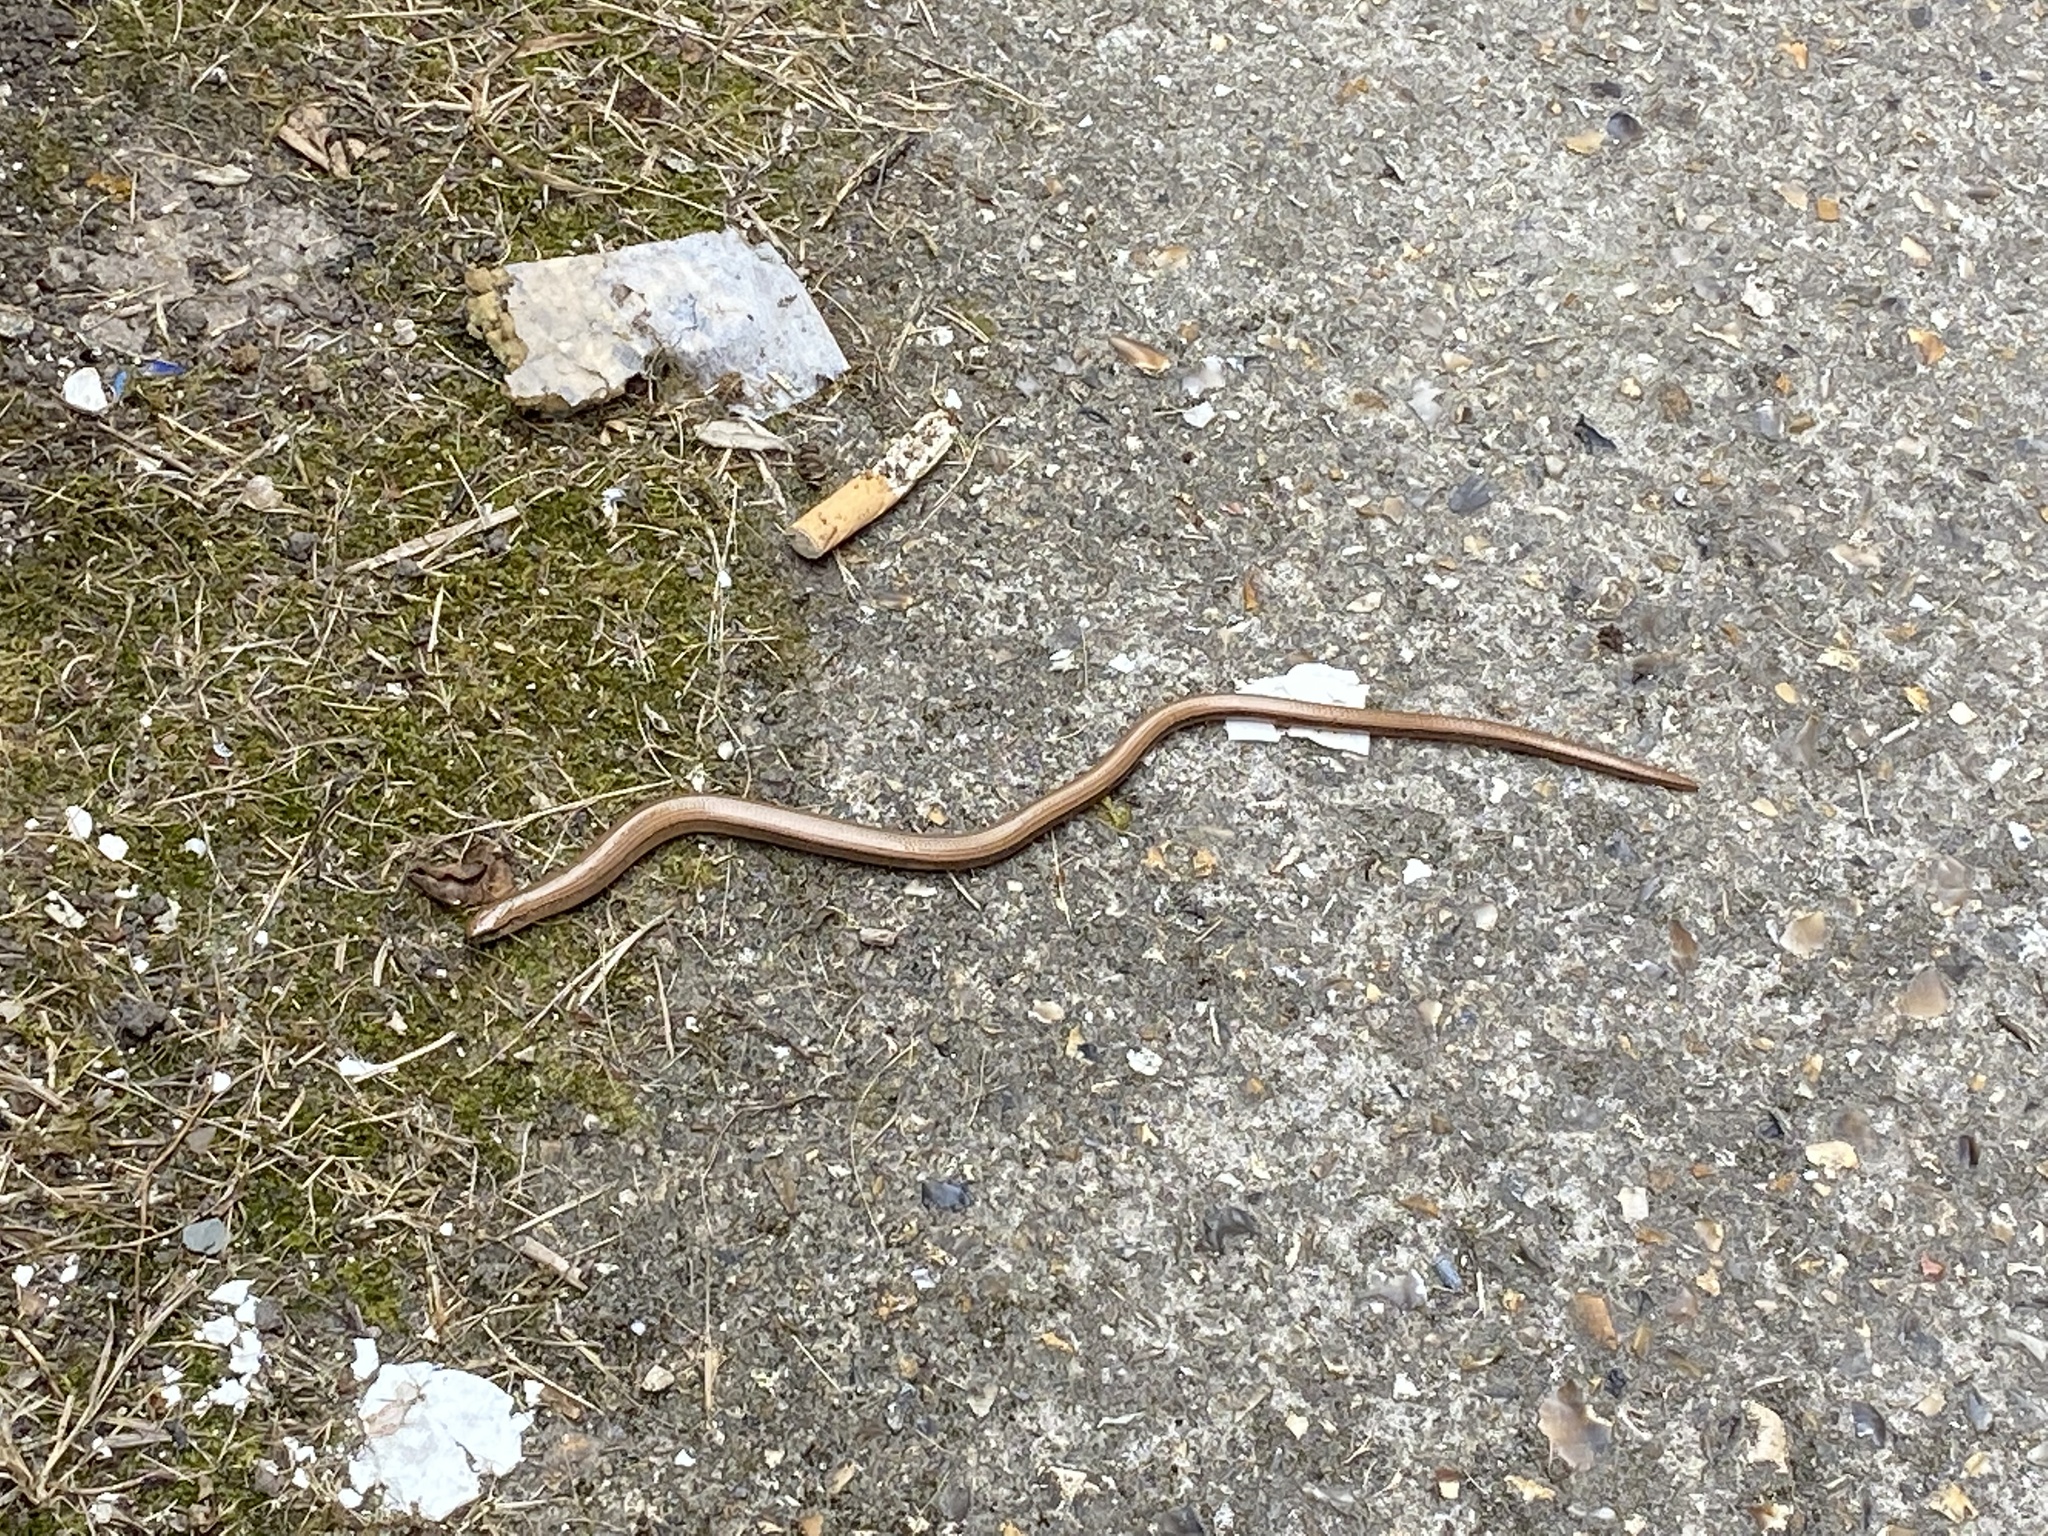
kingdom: Animalia
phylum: Chordata
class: Squamata
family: Anguidae
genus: Anguis
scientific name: Anguis fragilis
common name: Slow worm
